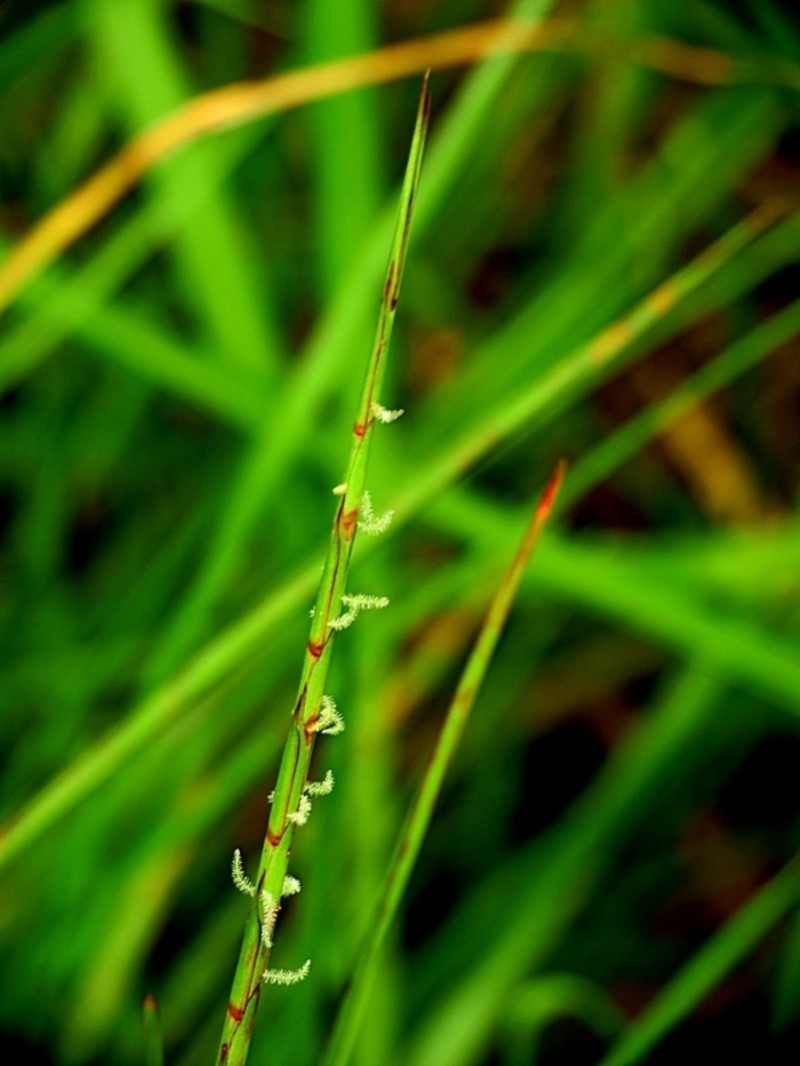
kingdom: Plantae
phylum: Tracheophyta
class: Liliopsida
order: Poales
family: Poaceae
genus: Hemarthria
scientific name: Hemarthria uncinata
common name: Matgrass
